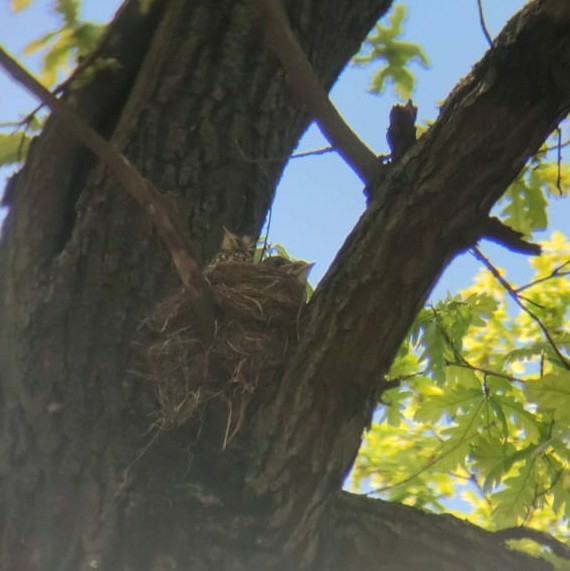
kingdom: Animalia
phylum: Chordata
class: Aves
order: Passeriformes
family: Turdidae
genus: Turdus
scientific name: Turdus pilaris
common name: Fieldfare
